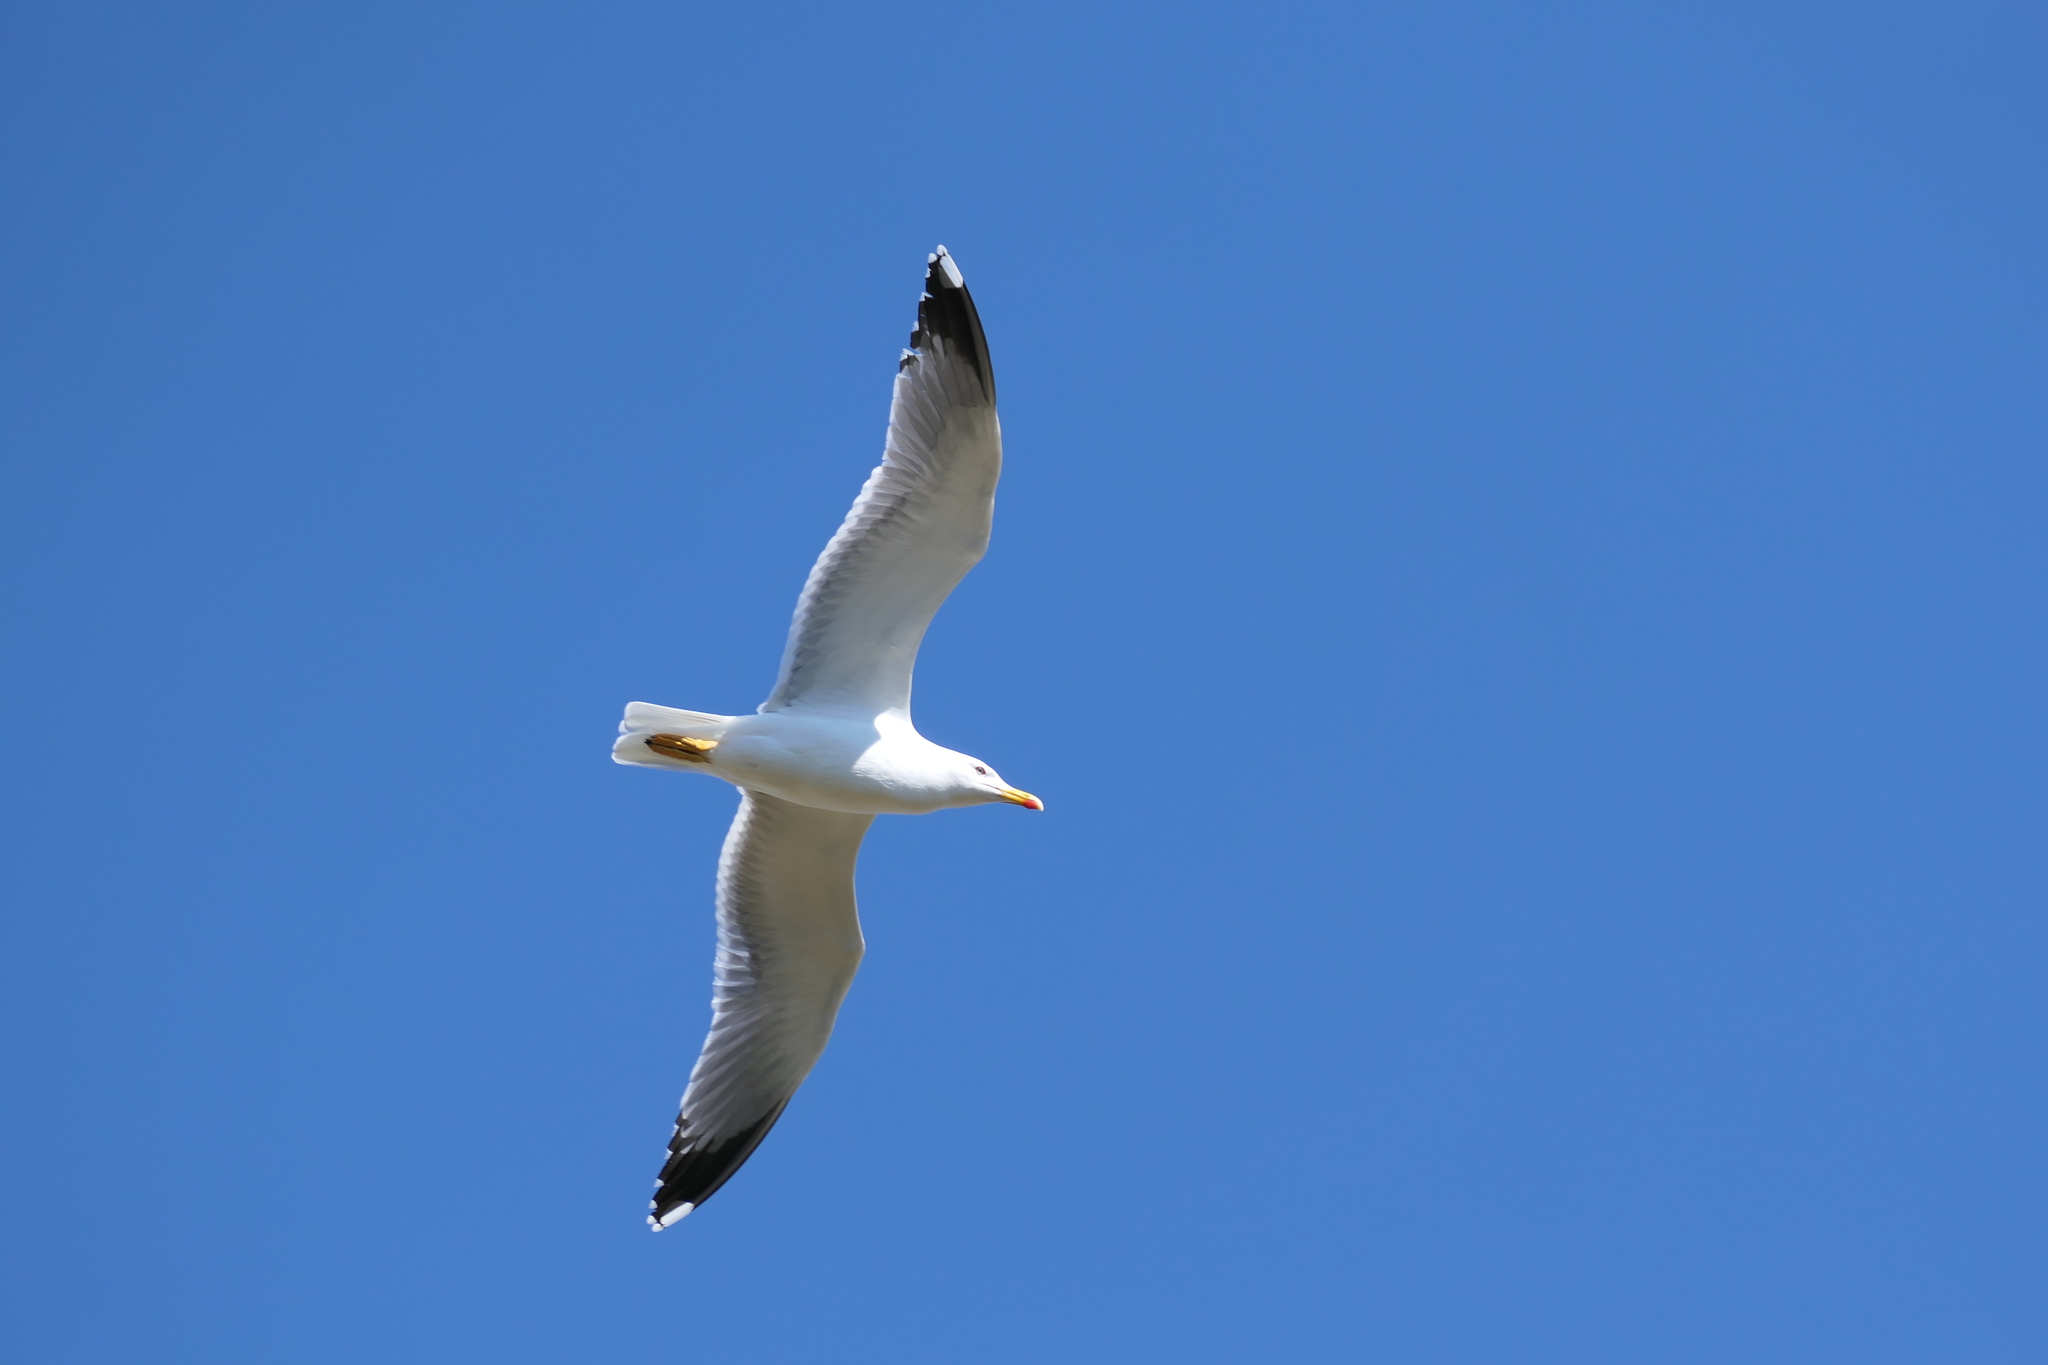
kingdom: Animalia
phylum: Chordata
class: Aves
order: Charadriiformes
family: Laridae
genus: Larus
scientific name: Larus michahellis
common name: Yellow-legged gull
